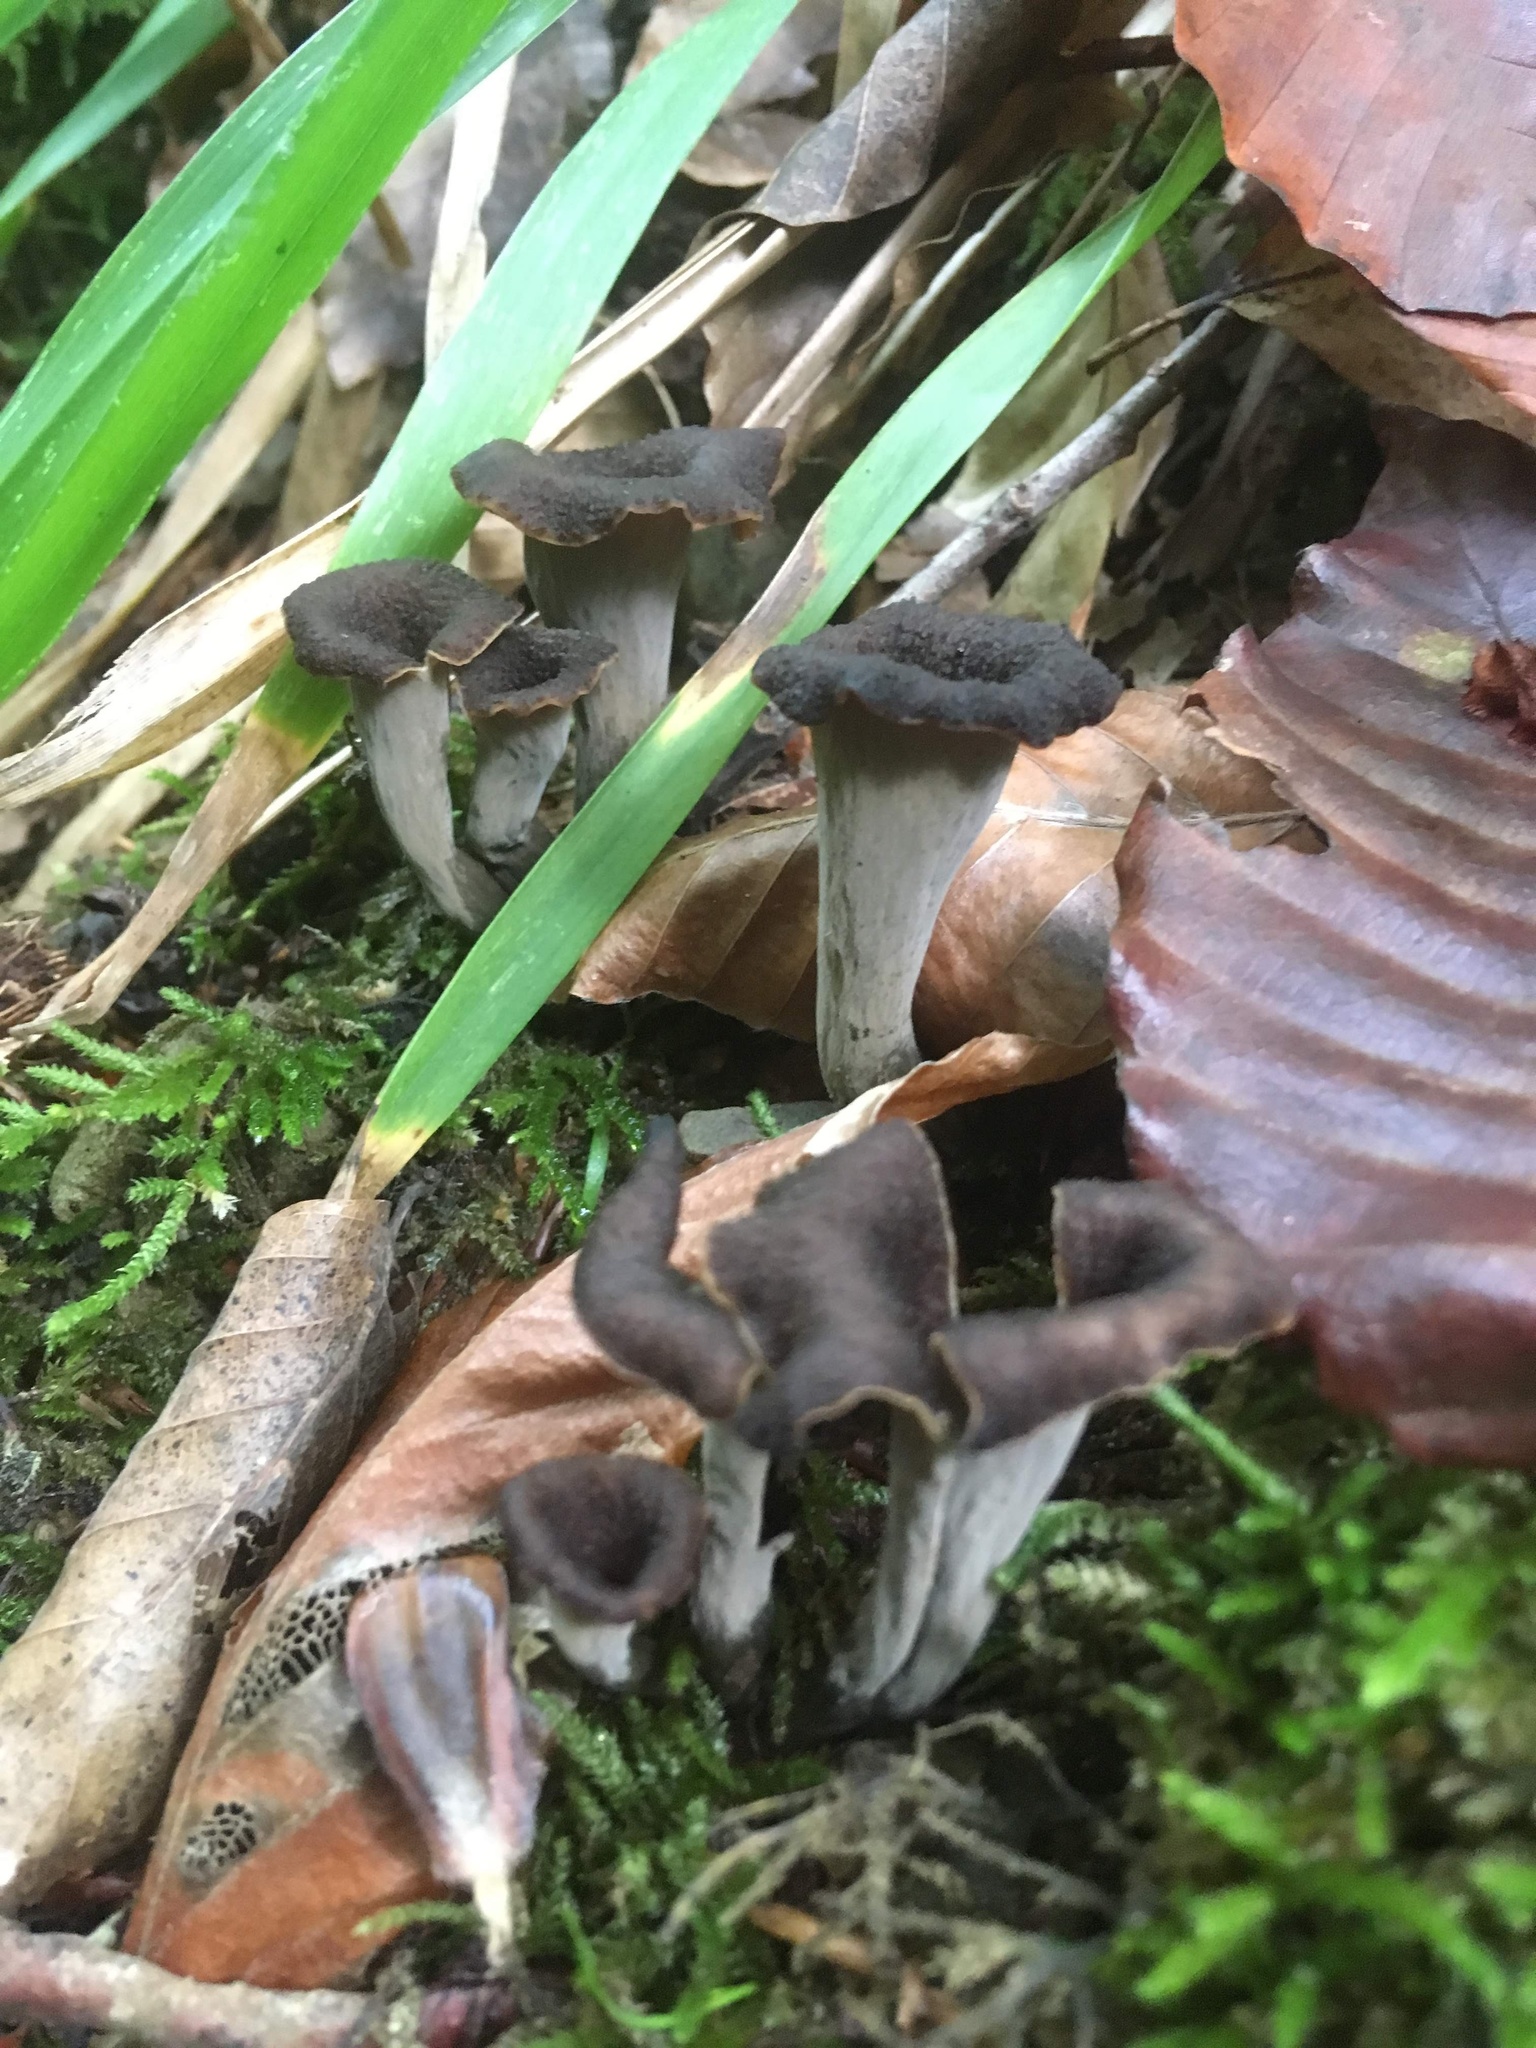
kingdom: Fungi
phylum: Basidiomycota
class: Agaricomycetes
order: Cantharellales
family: Hydnaceae
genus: Craterellus
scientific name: Craterellus cornucopioides
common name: Horn of plenty
